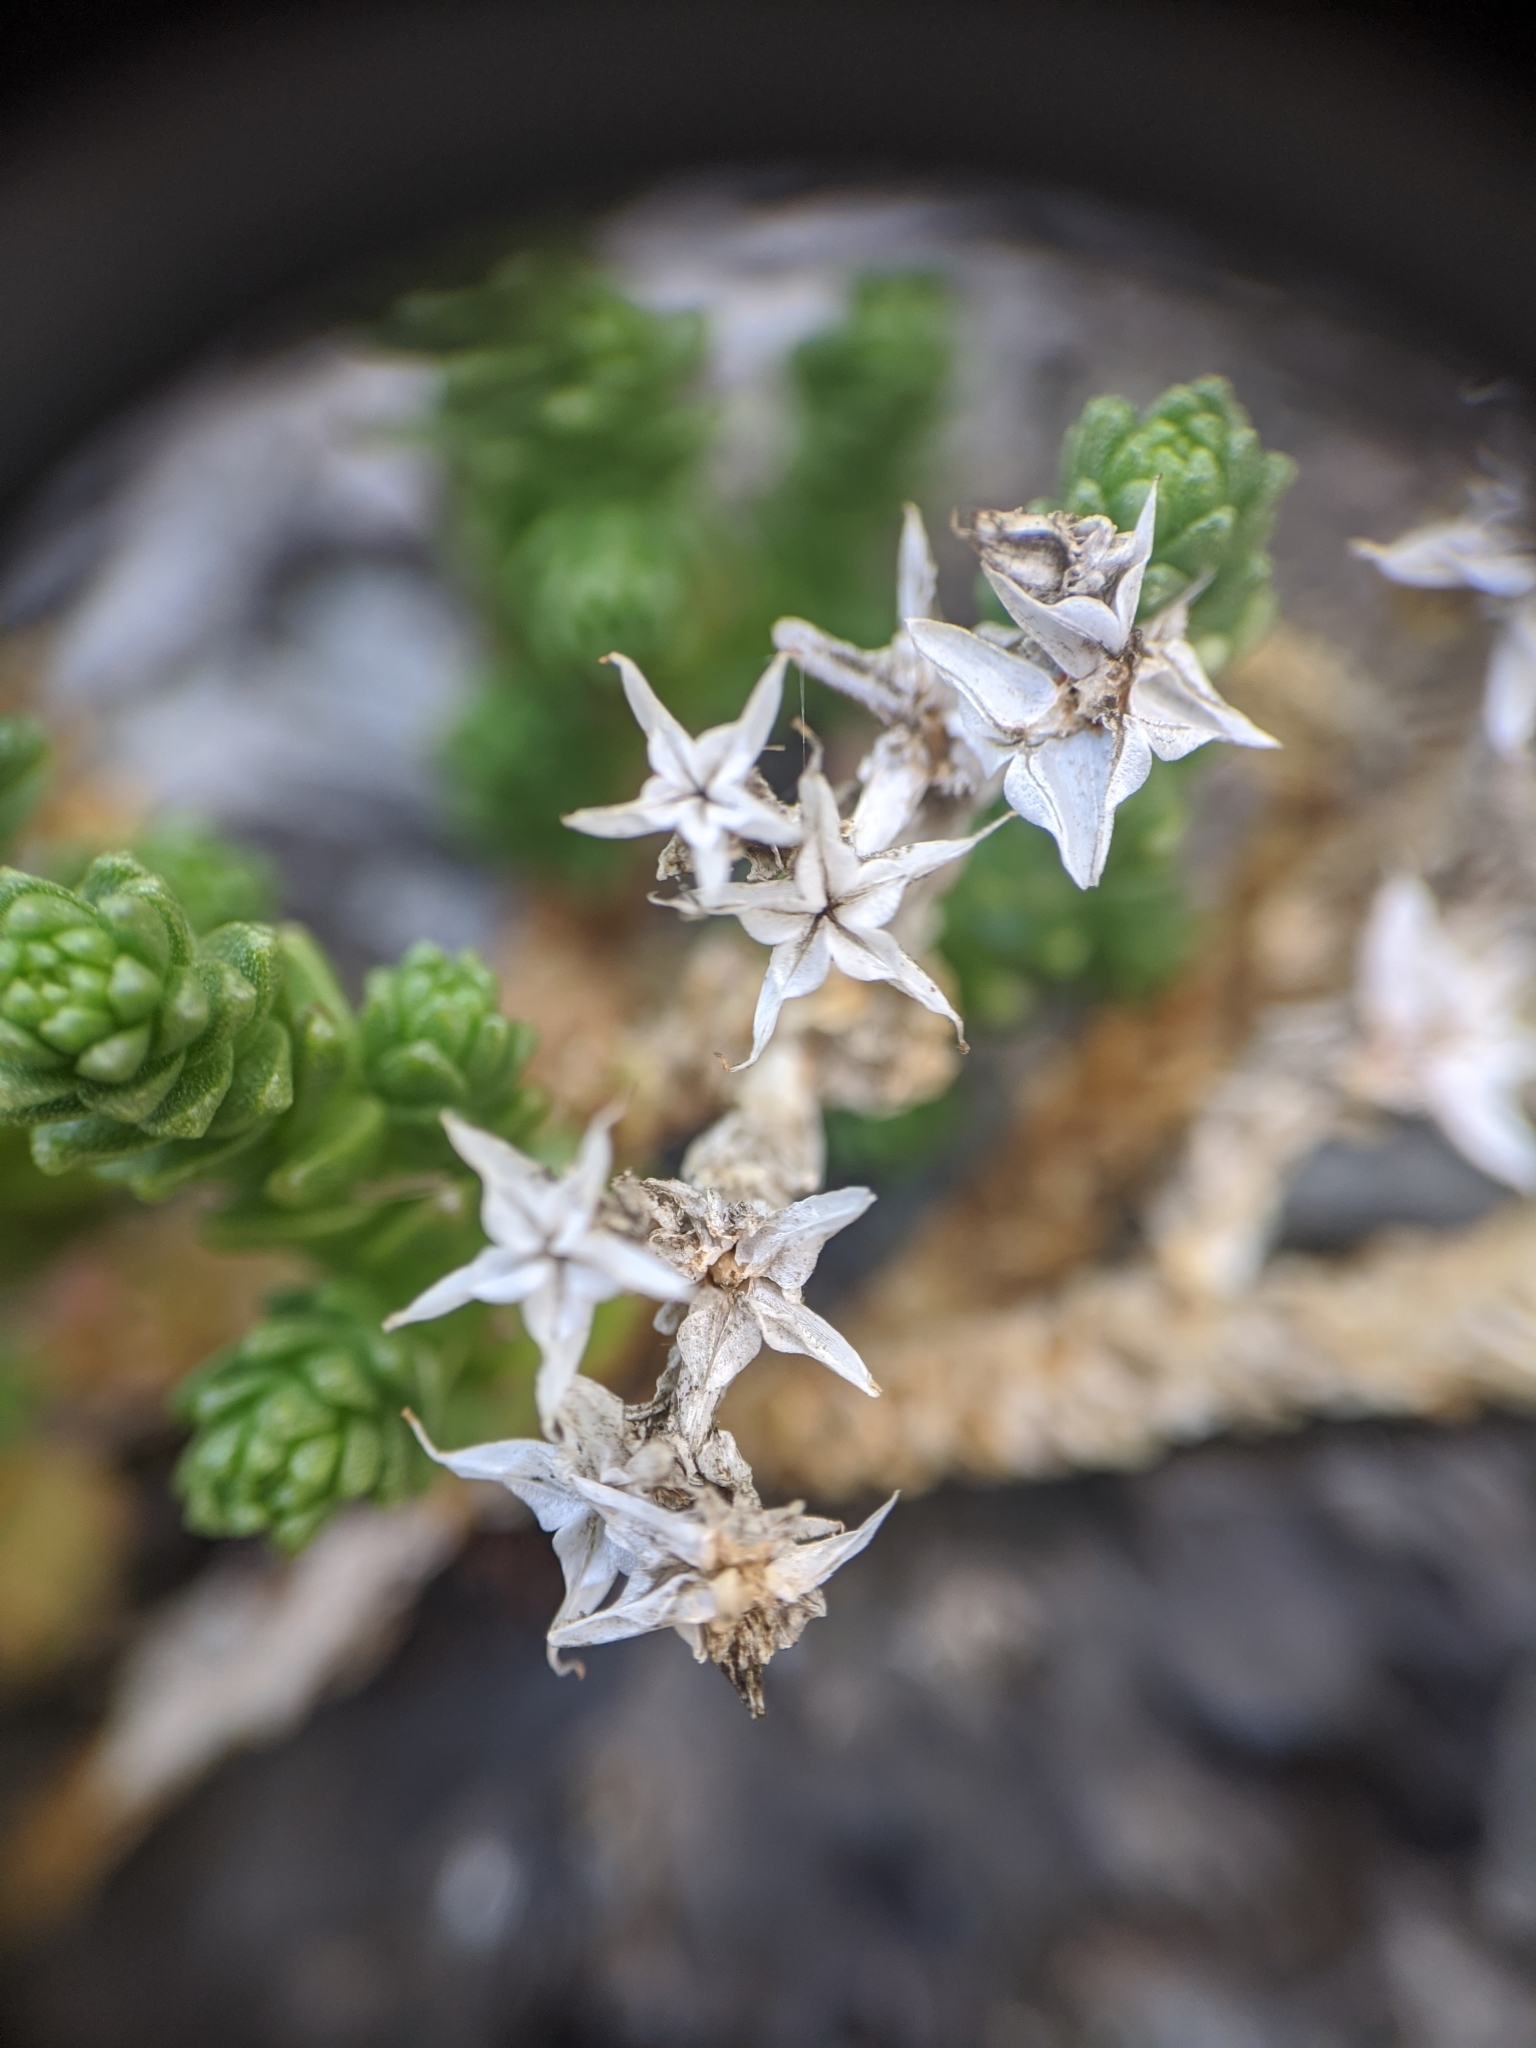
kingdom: Plantae
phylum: Tracheophyta
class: Magnoliopsida
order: Saxifragales
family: Crassulaceae
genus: Sedum
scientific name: Sedum acre
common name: Biting stonecrop
